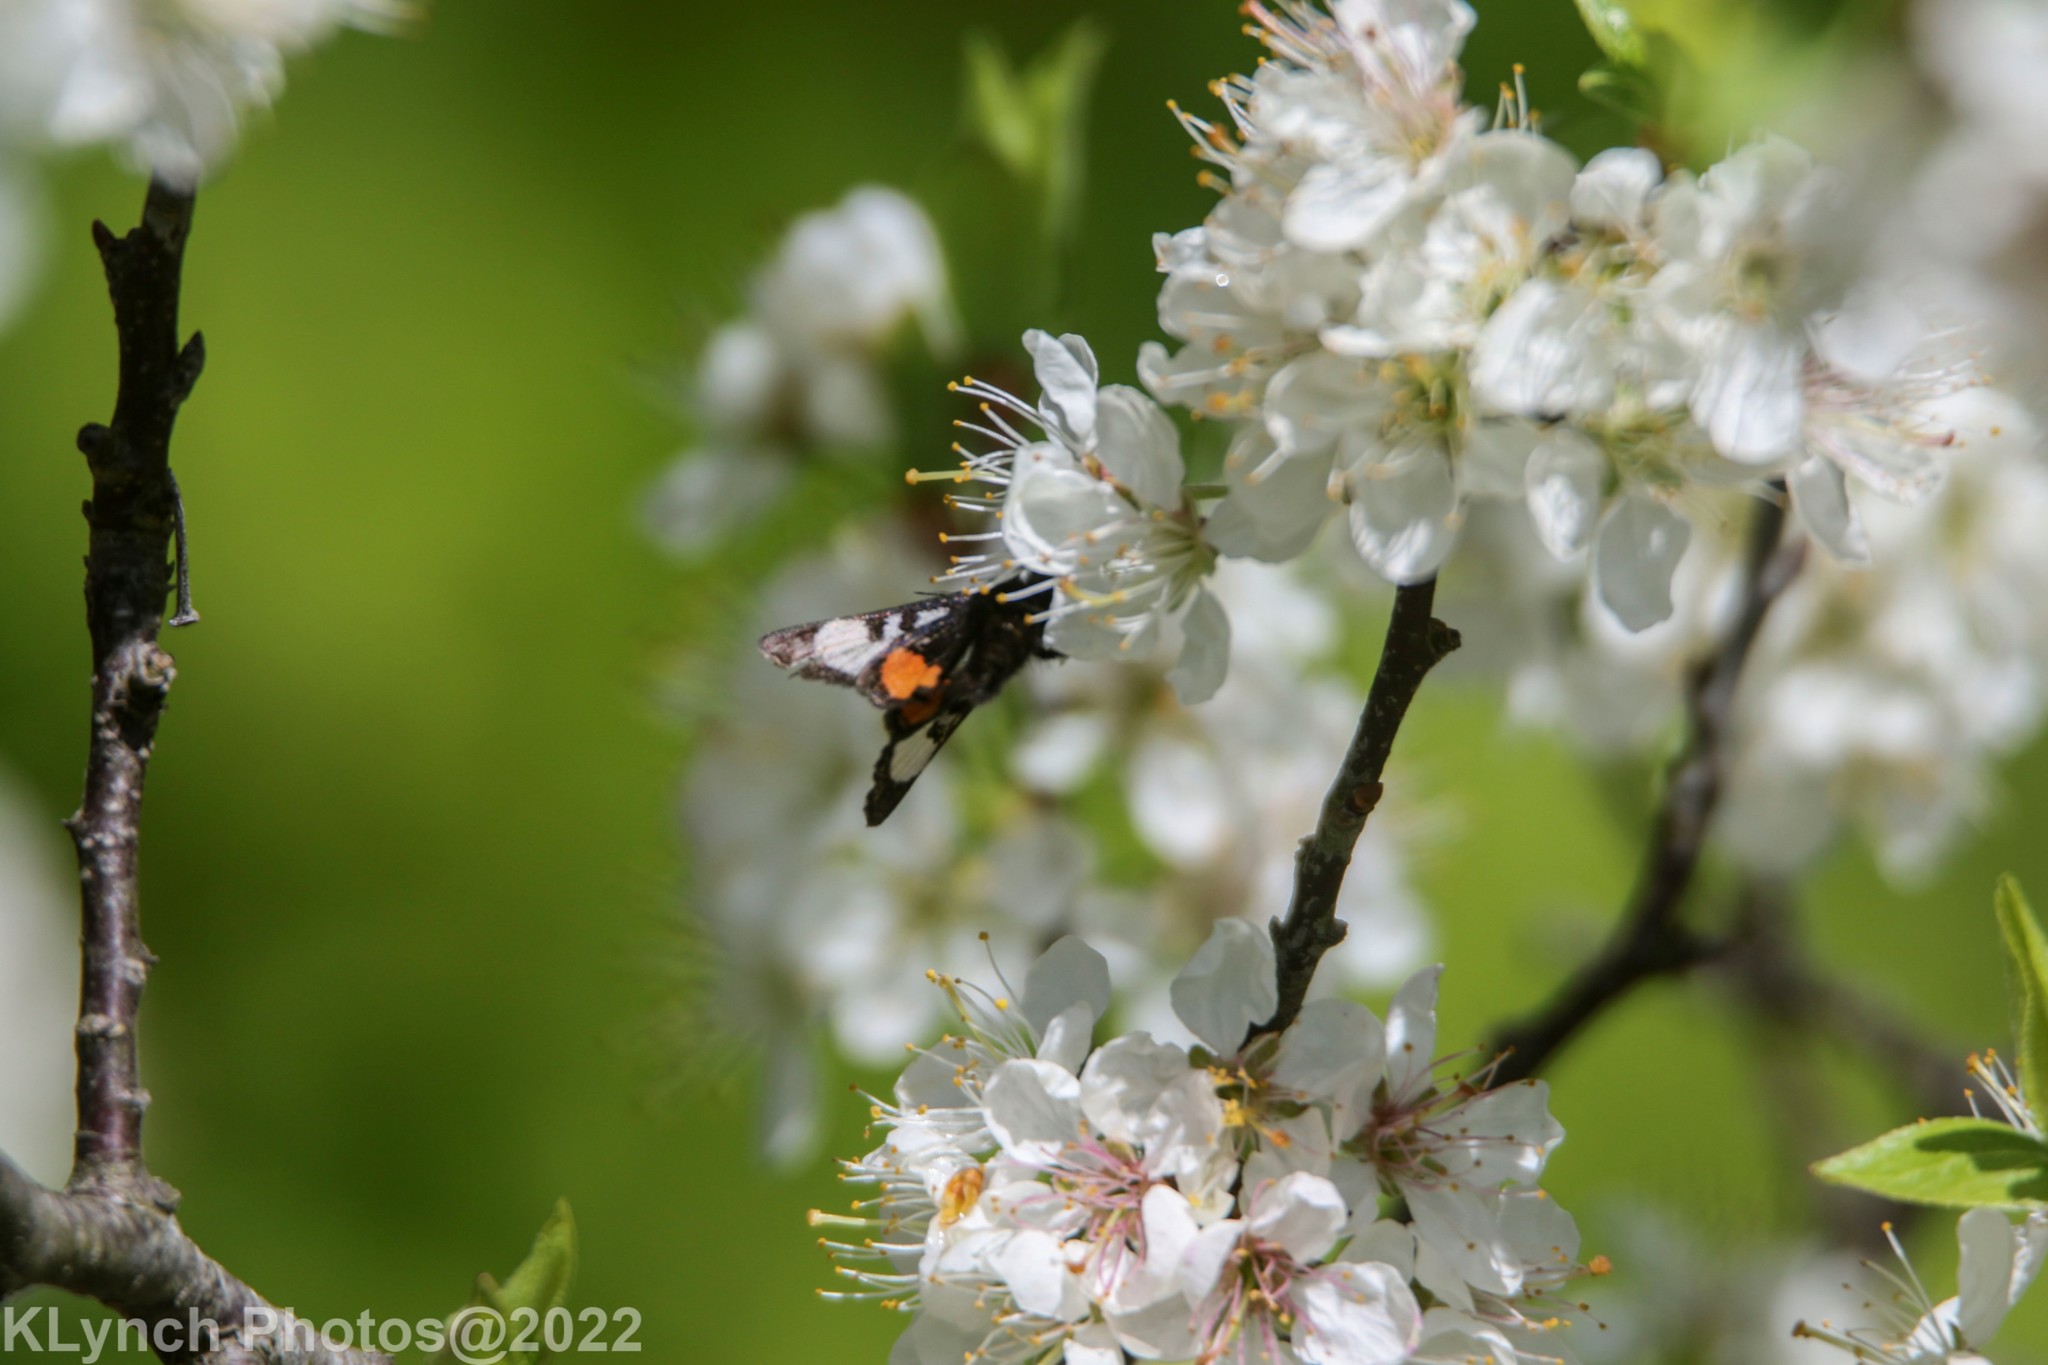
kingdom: Animalia
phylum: Arthropoda
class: Insecta
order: Lepidoptera
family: Noctuidae
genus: Psychomorpha
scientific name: Psychomorpha epimenis
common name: Grapevine epimenis moth
